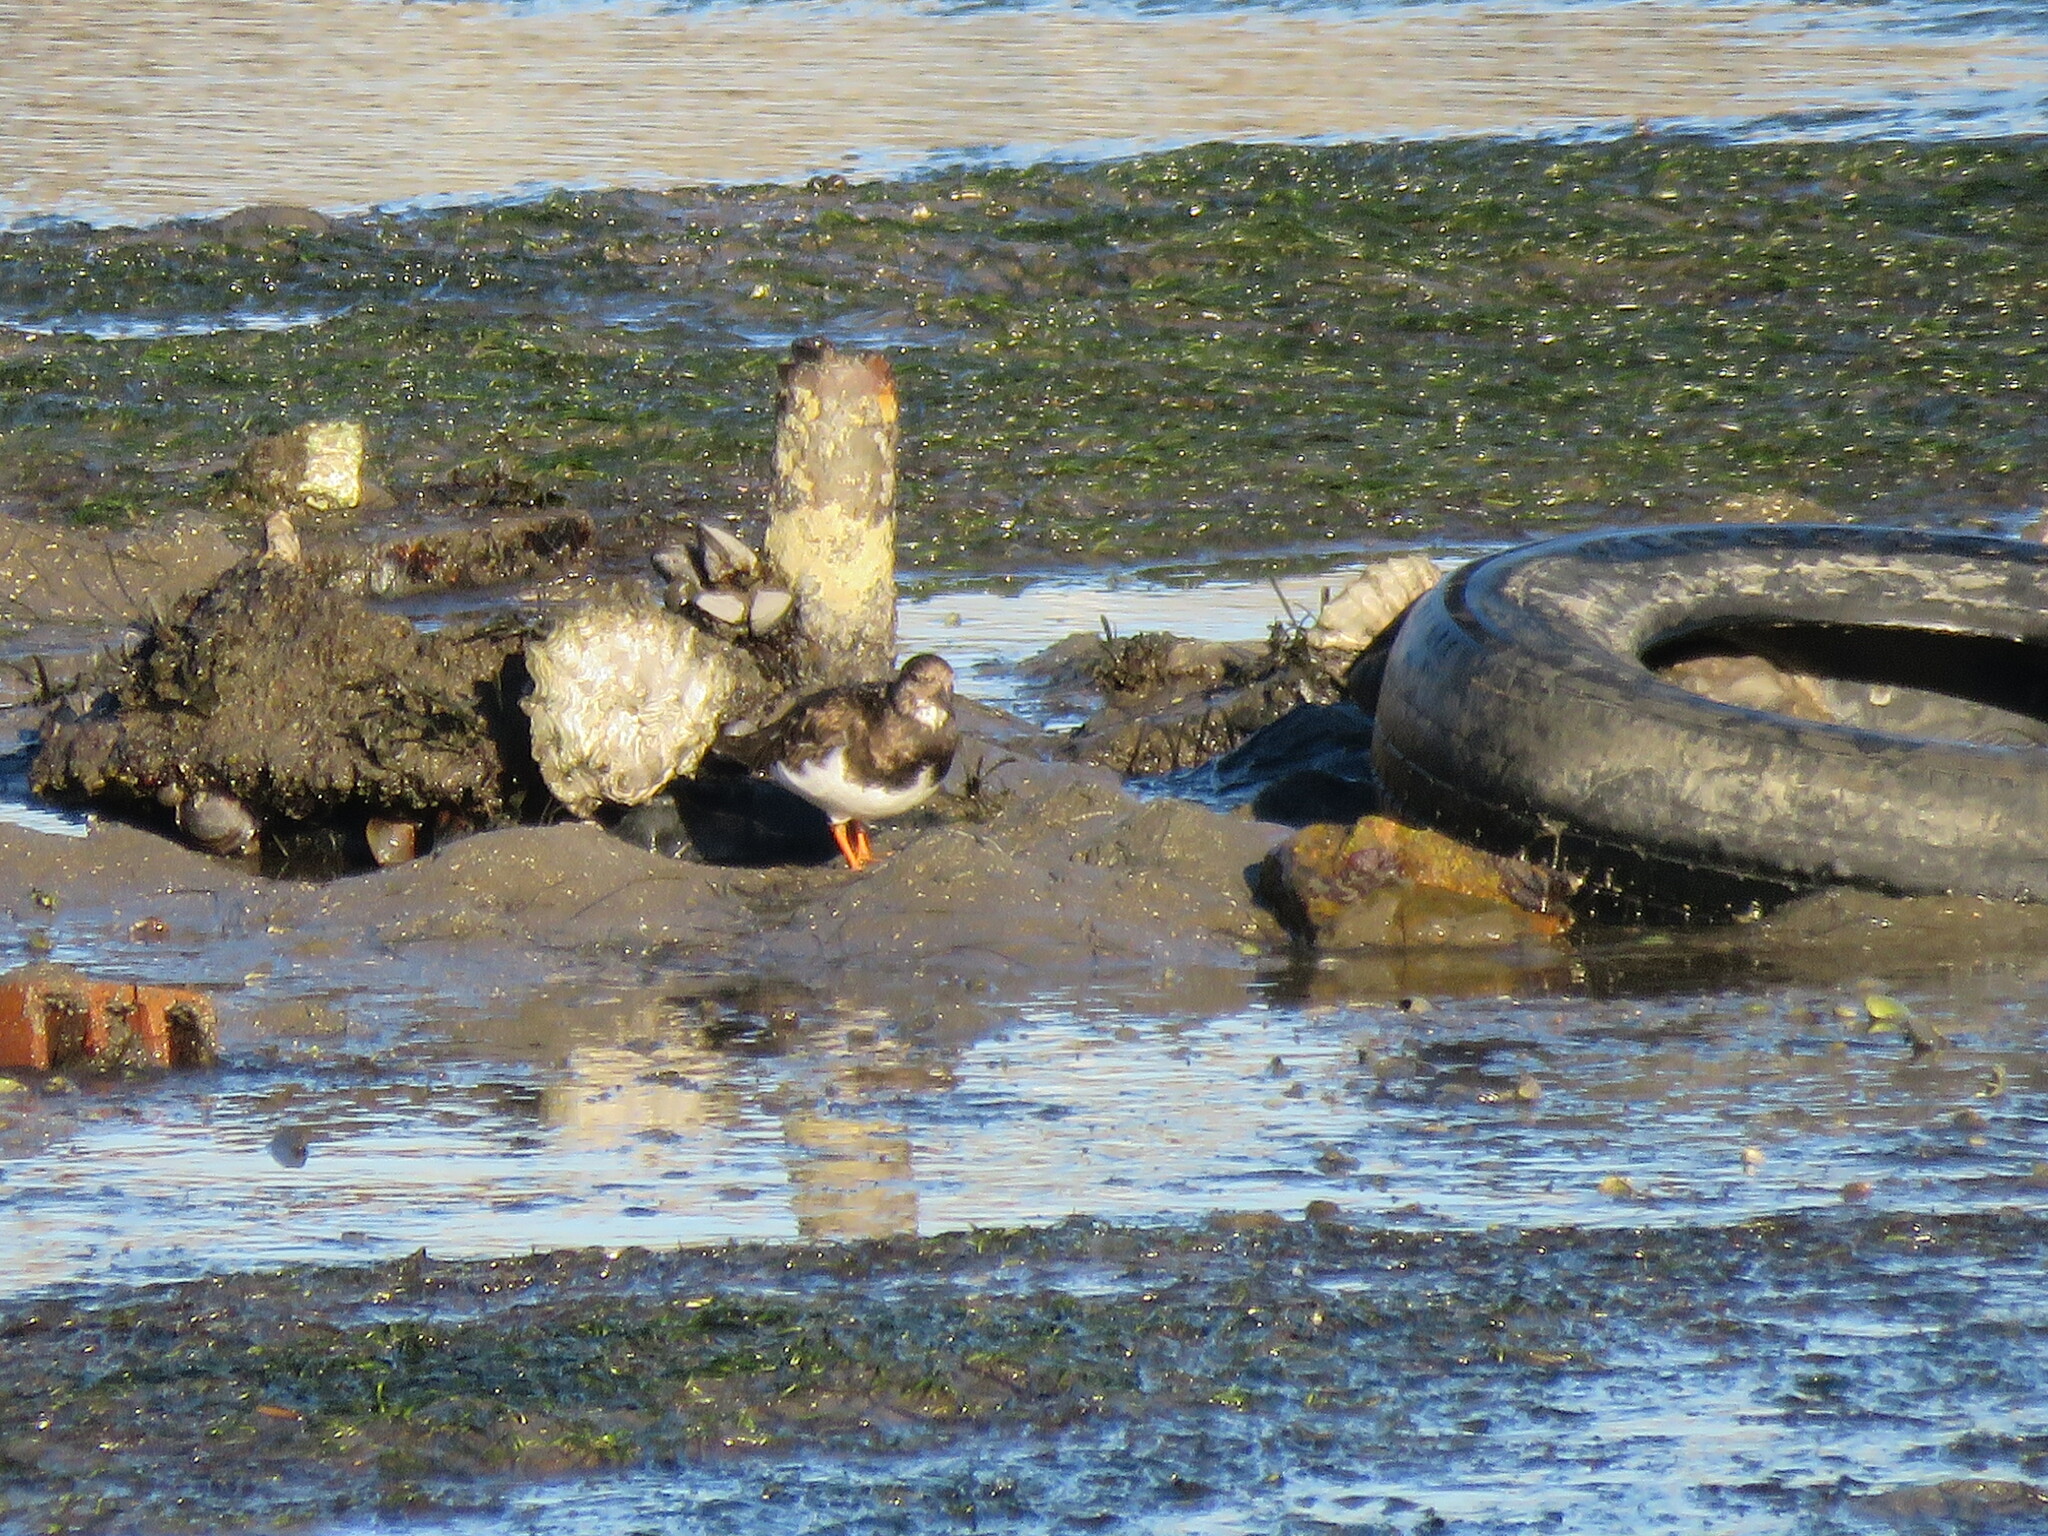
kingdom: Animalia
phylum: Chordata
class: Aves
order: Charadriiformes
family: Scolopacidae
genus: Arenaria
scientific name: Arenaria interpres
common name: Ruddy turnstone
